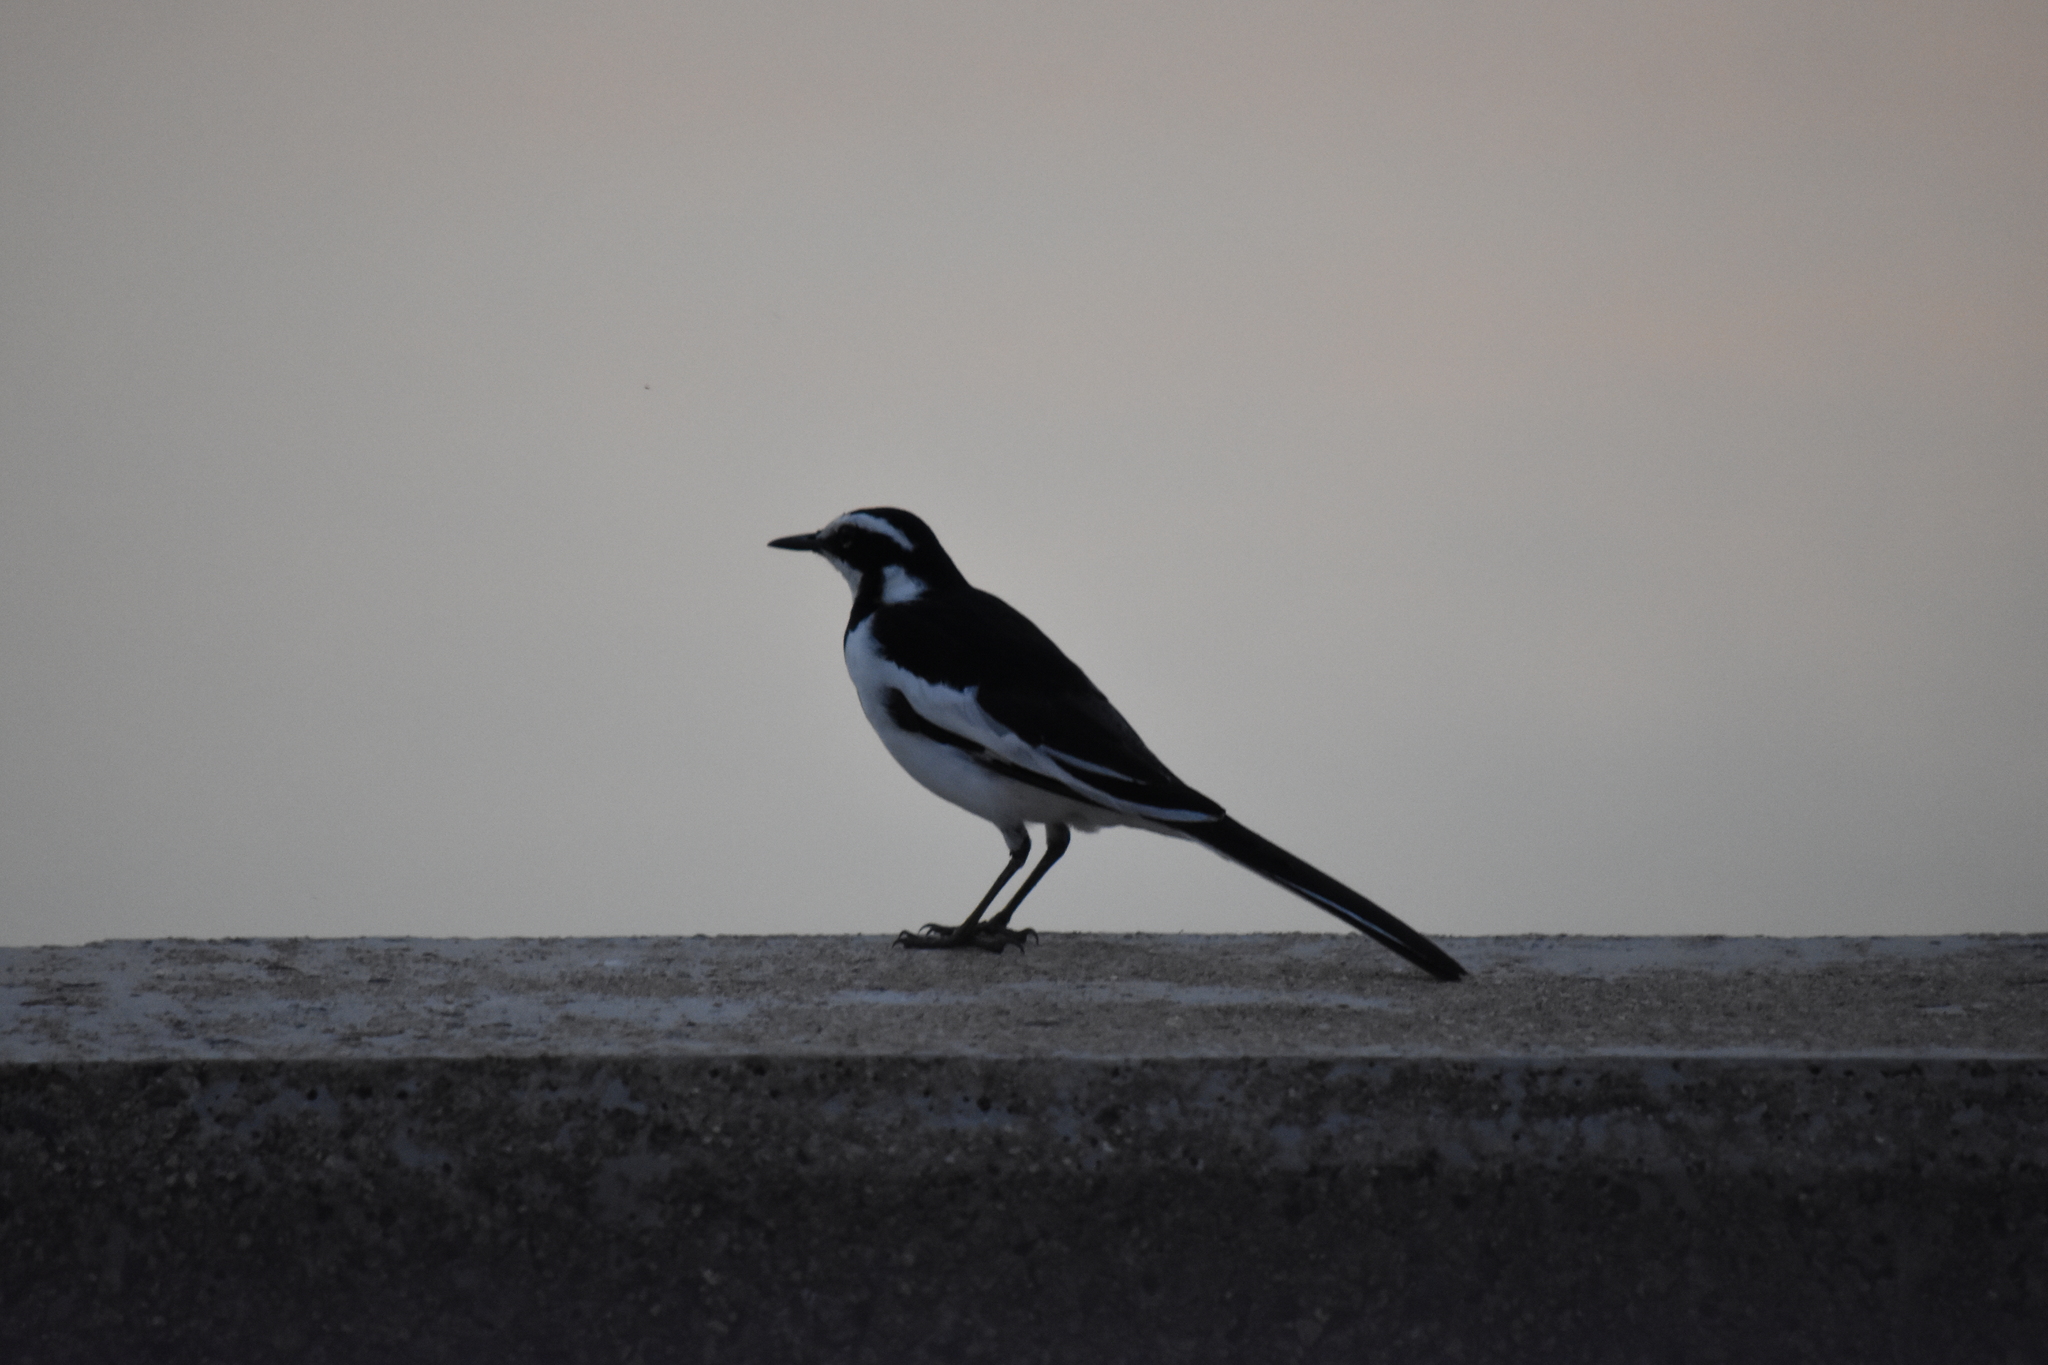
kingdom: Animalia
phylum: Chordata
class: Aves
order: Passeriformes
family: Motacillidae
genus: Motacilla
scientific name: Motacilla aguimp
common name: African pied wagtail
